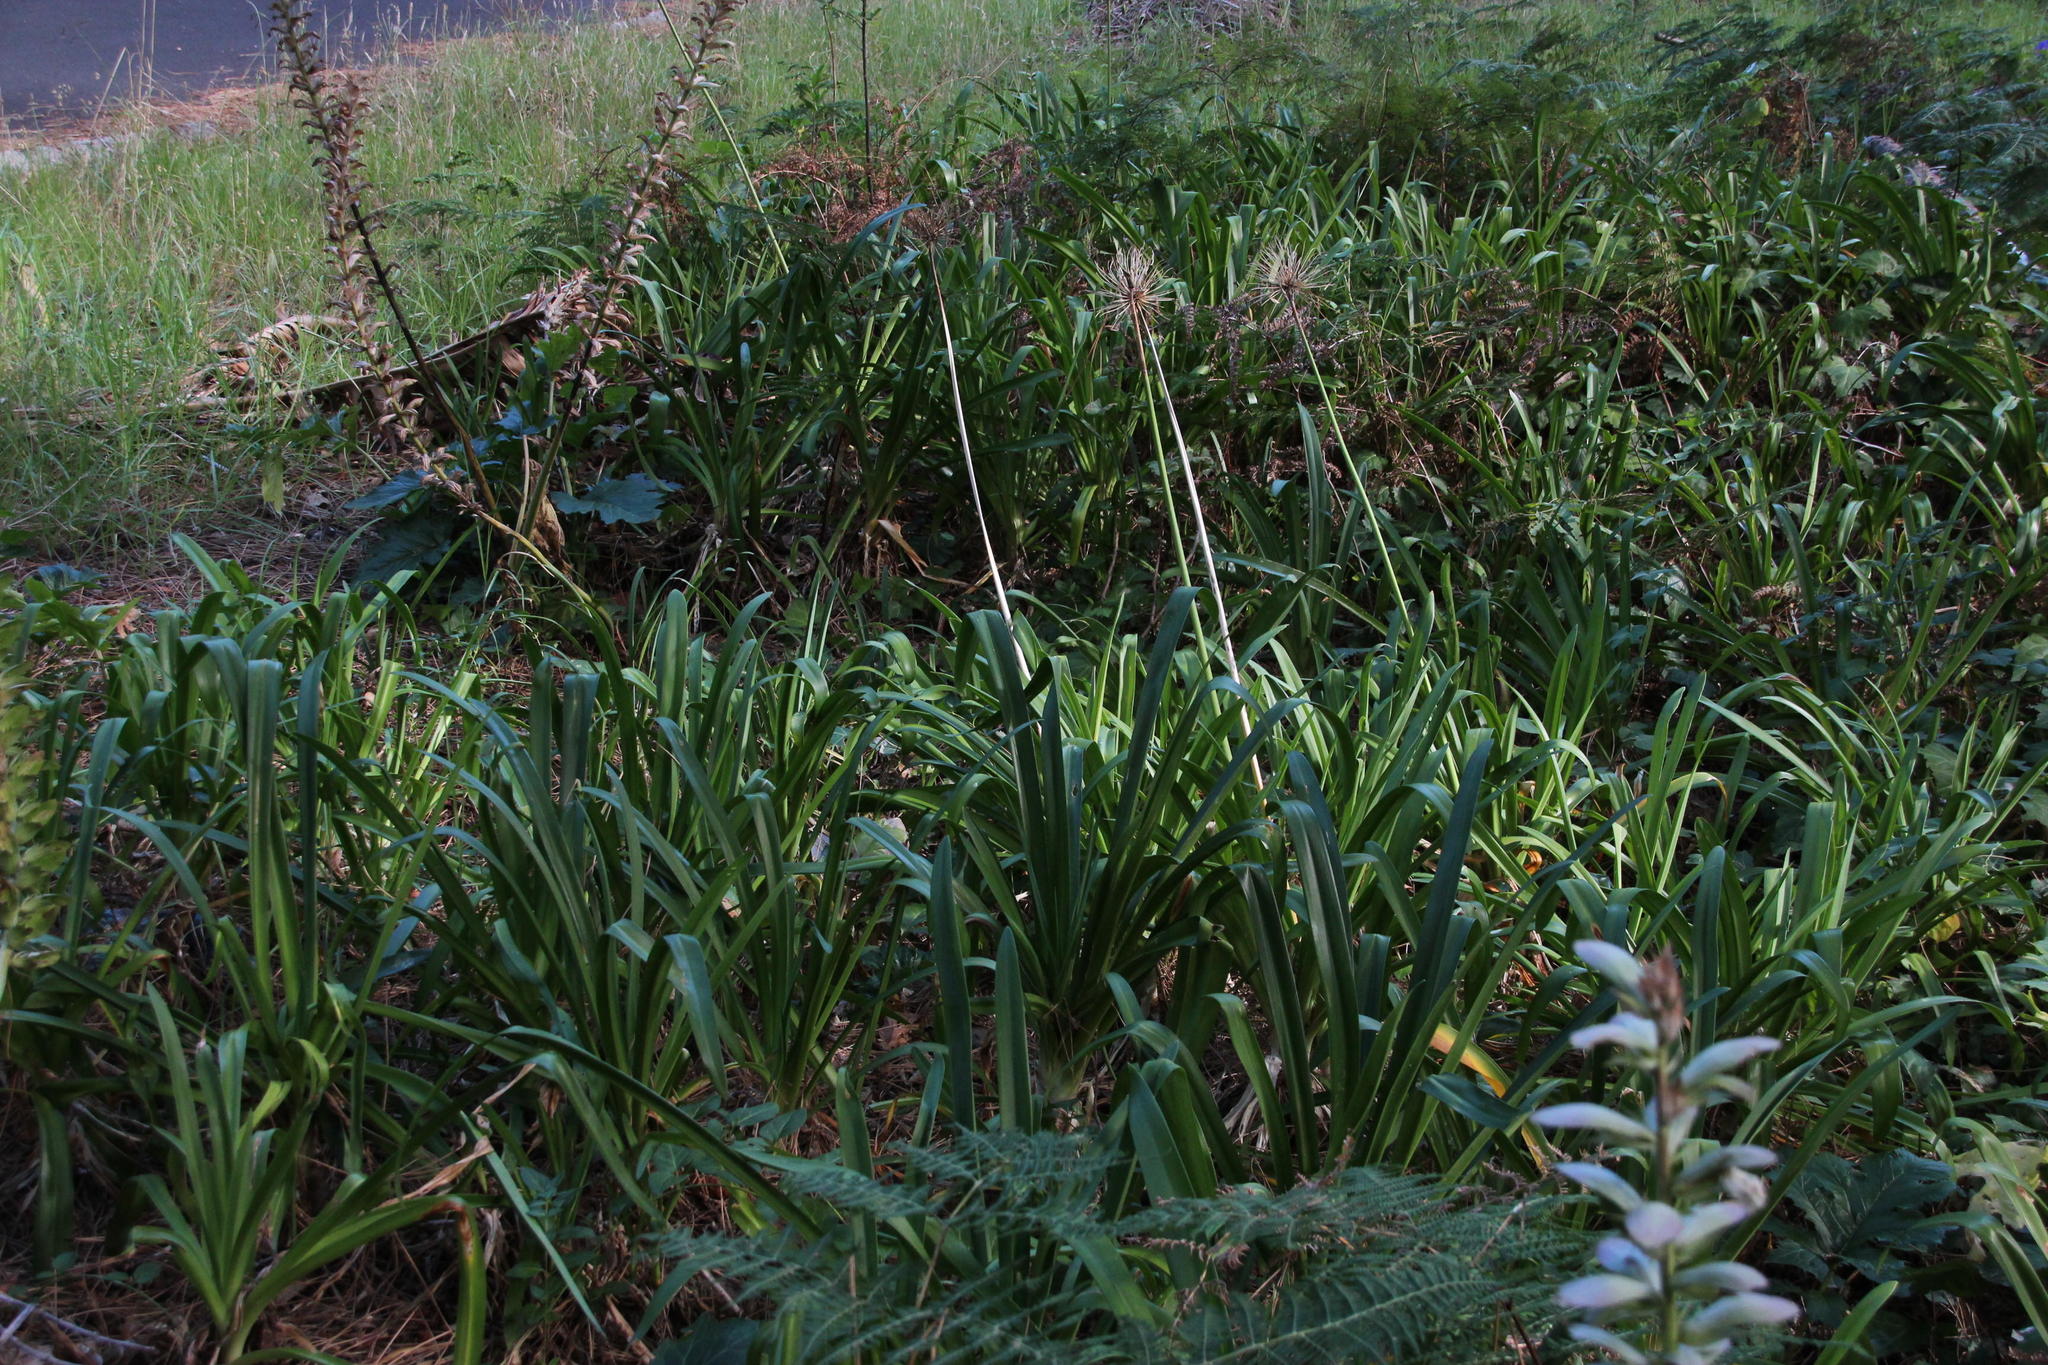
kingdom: Plantae
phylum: Tracheophyta
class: Liliopsida
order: Asparagales
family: Amaryllidaceae
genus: Agapanthus
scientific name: Agapanthus praecox
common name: African-lily
